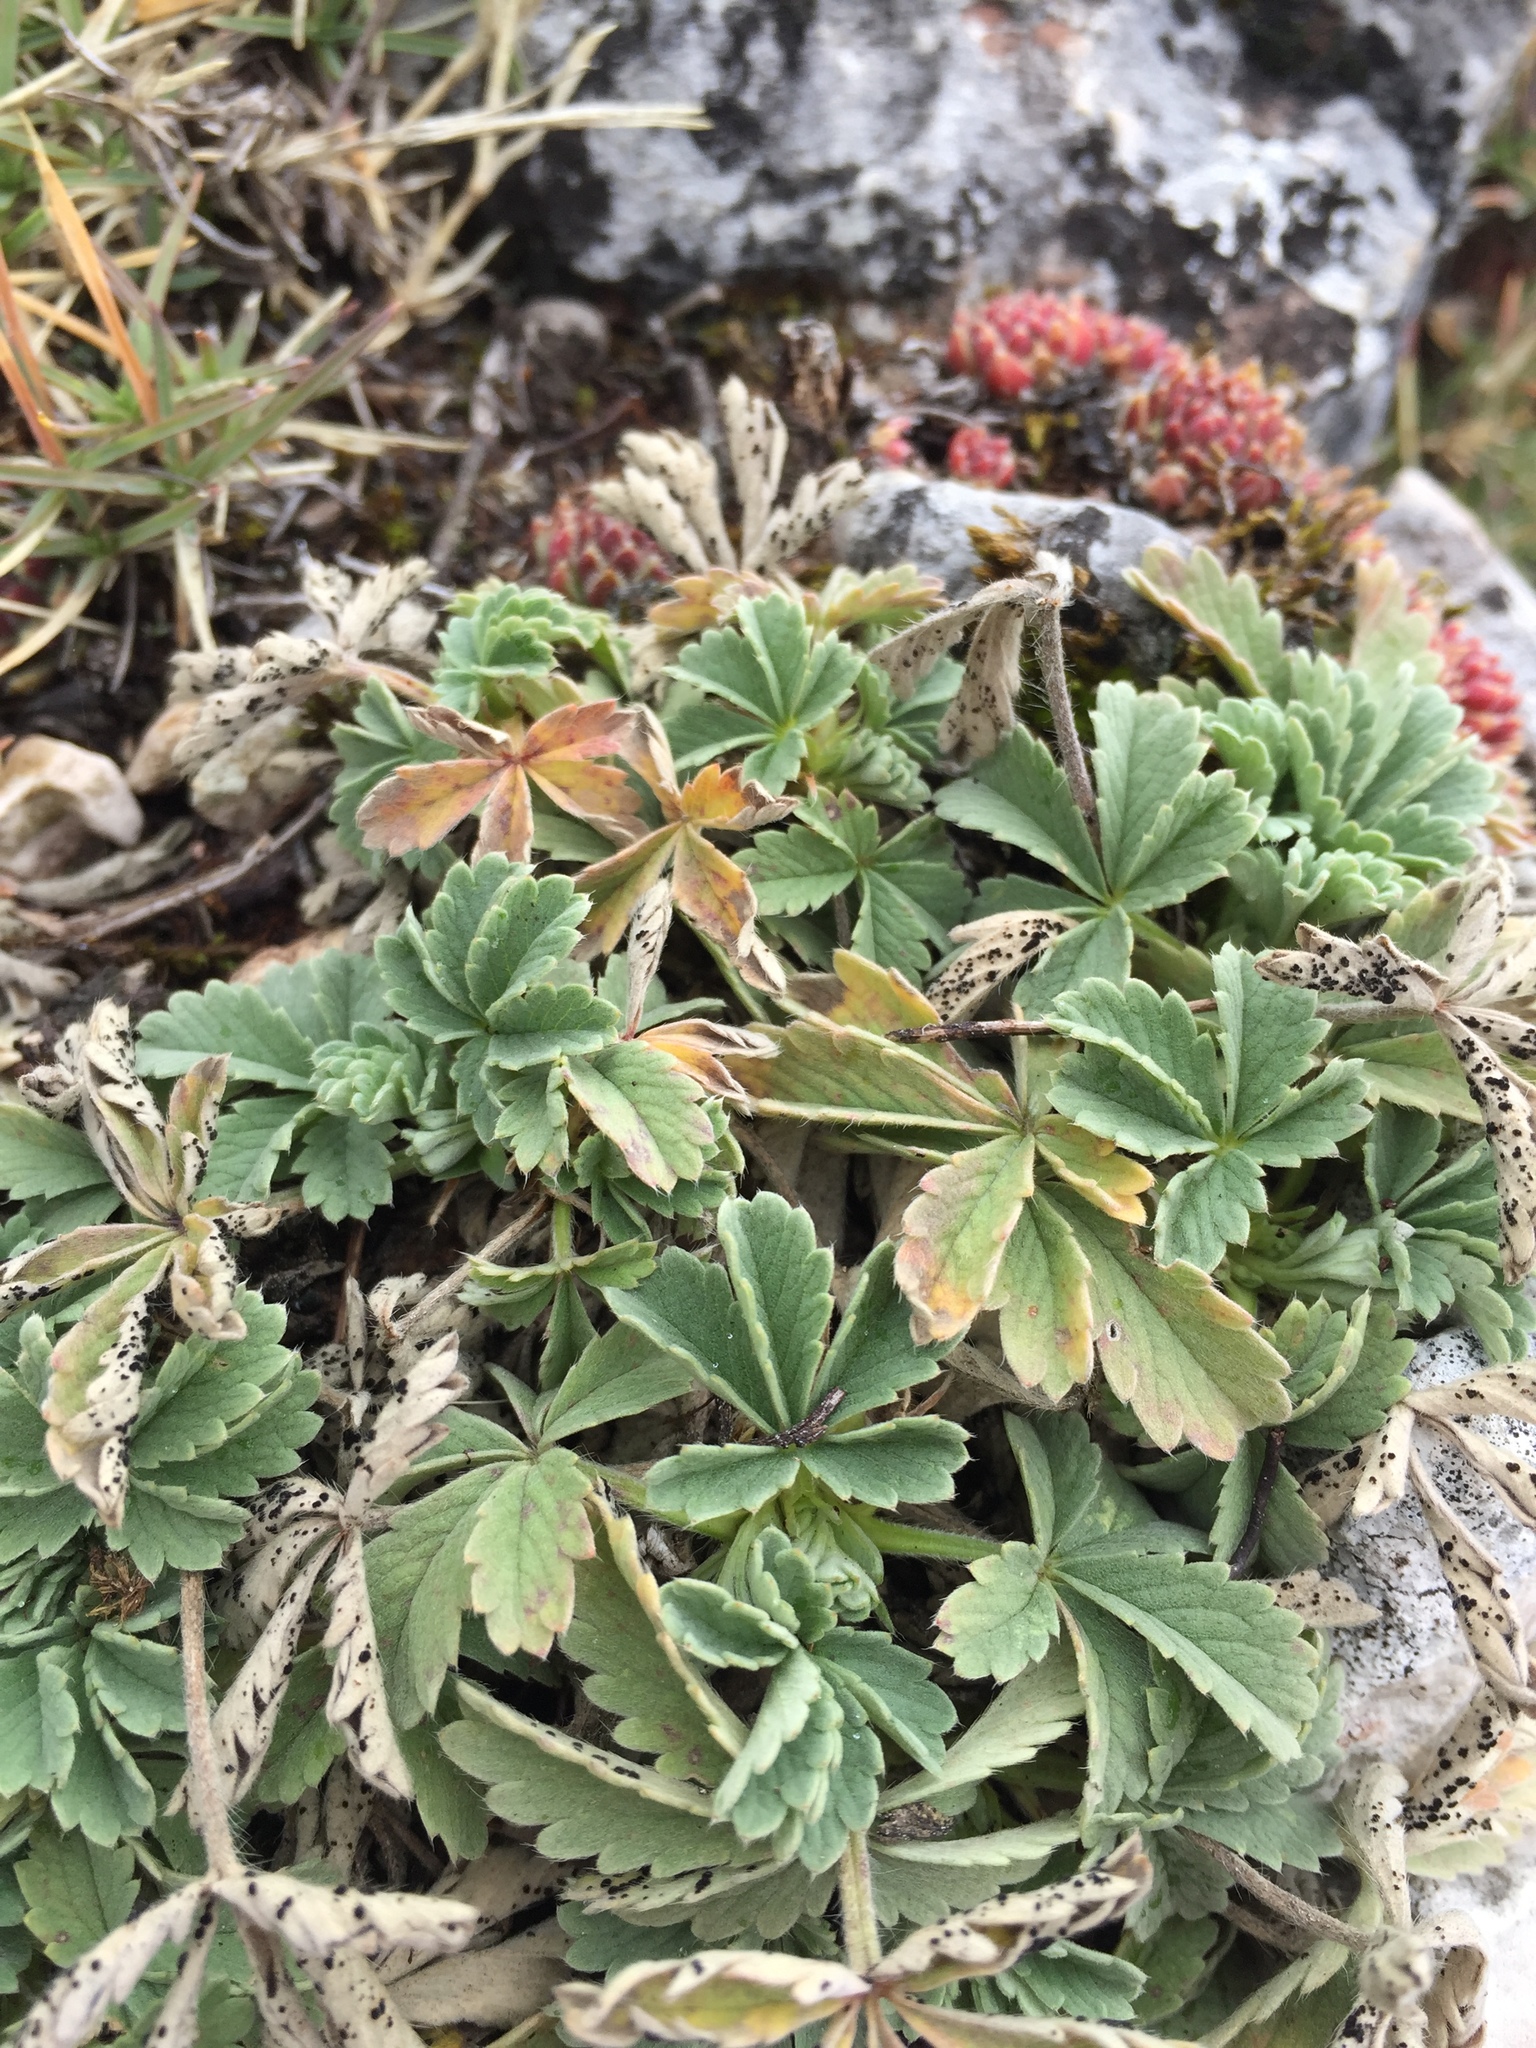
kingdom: Plantae
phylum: Tracheophyta
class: Magnoliopsida
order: Rosales
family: Rosaceae
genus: Potentilla
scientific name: Potentilla incana
